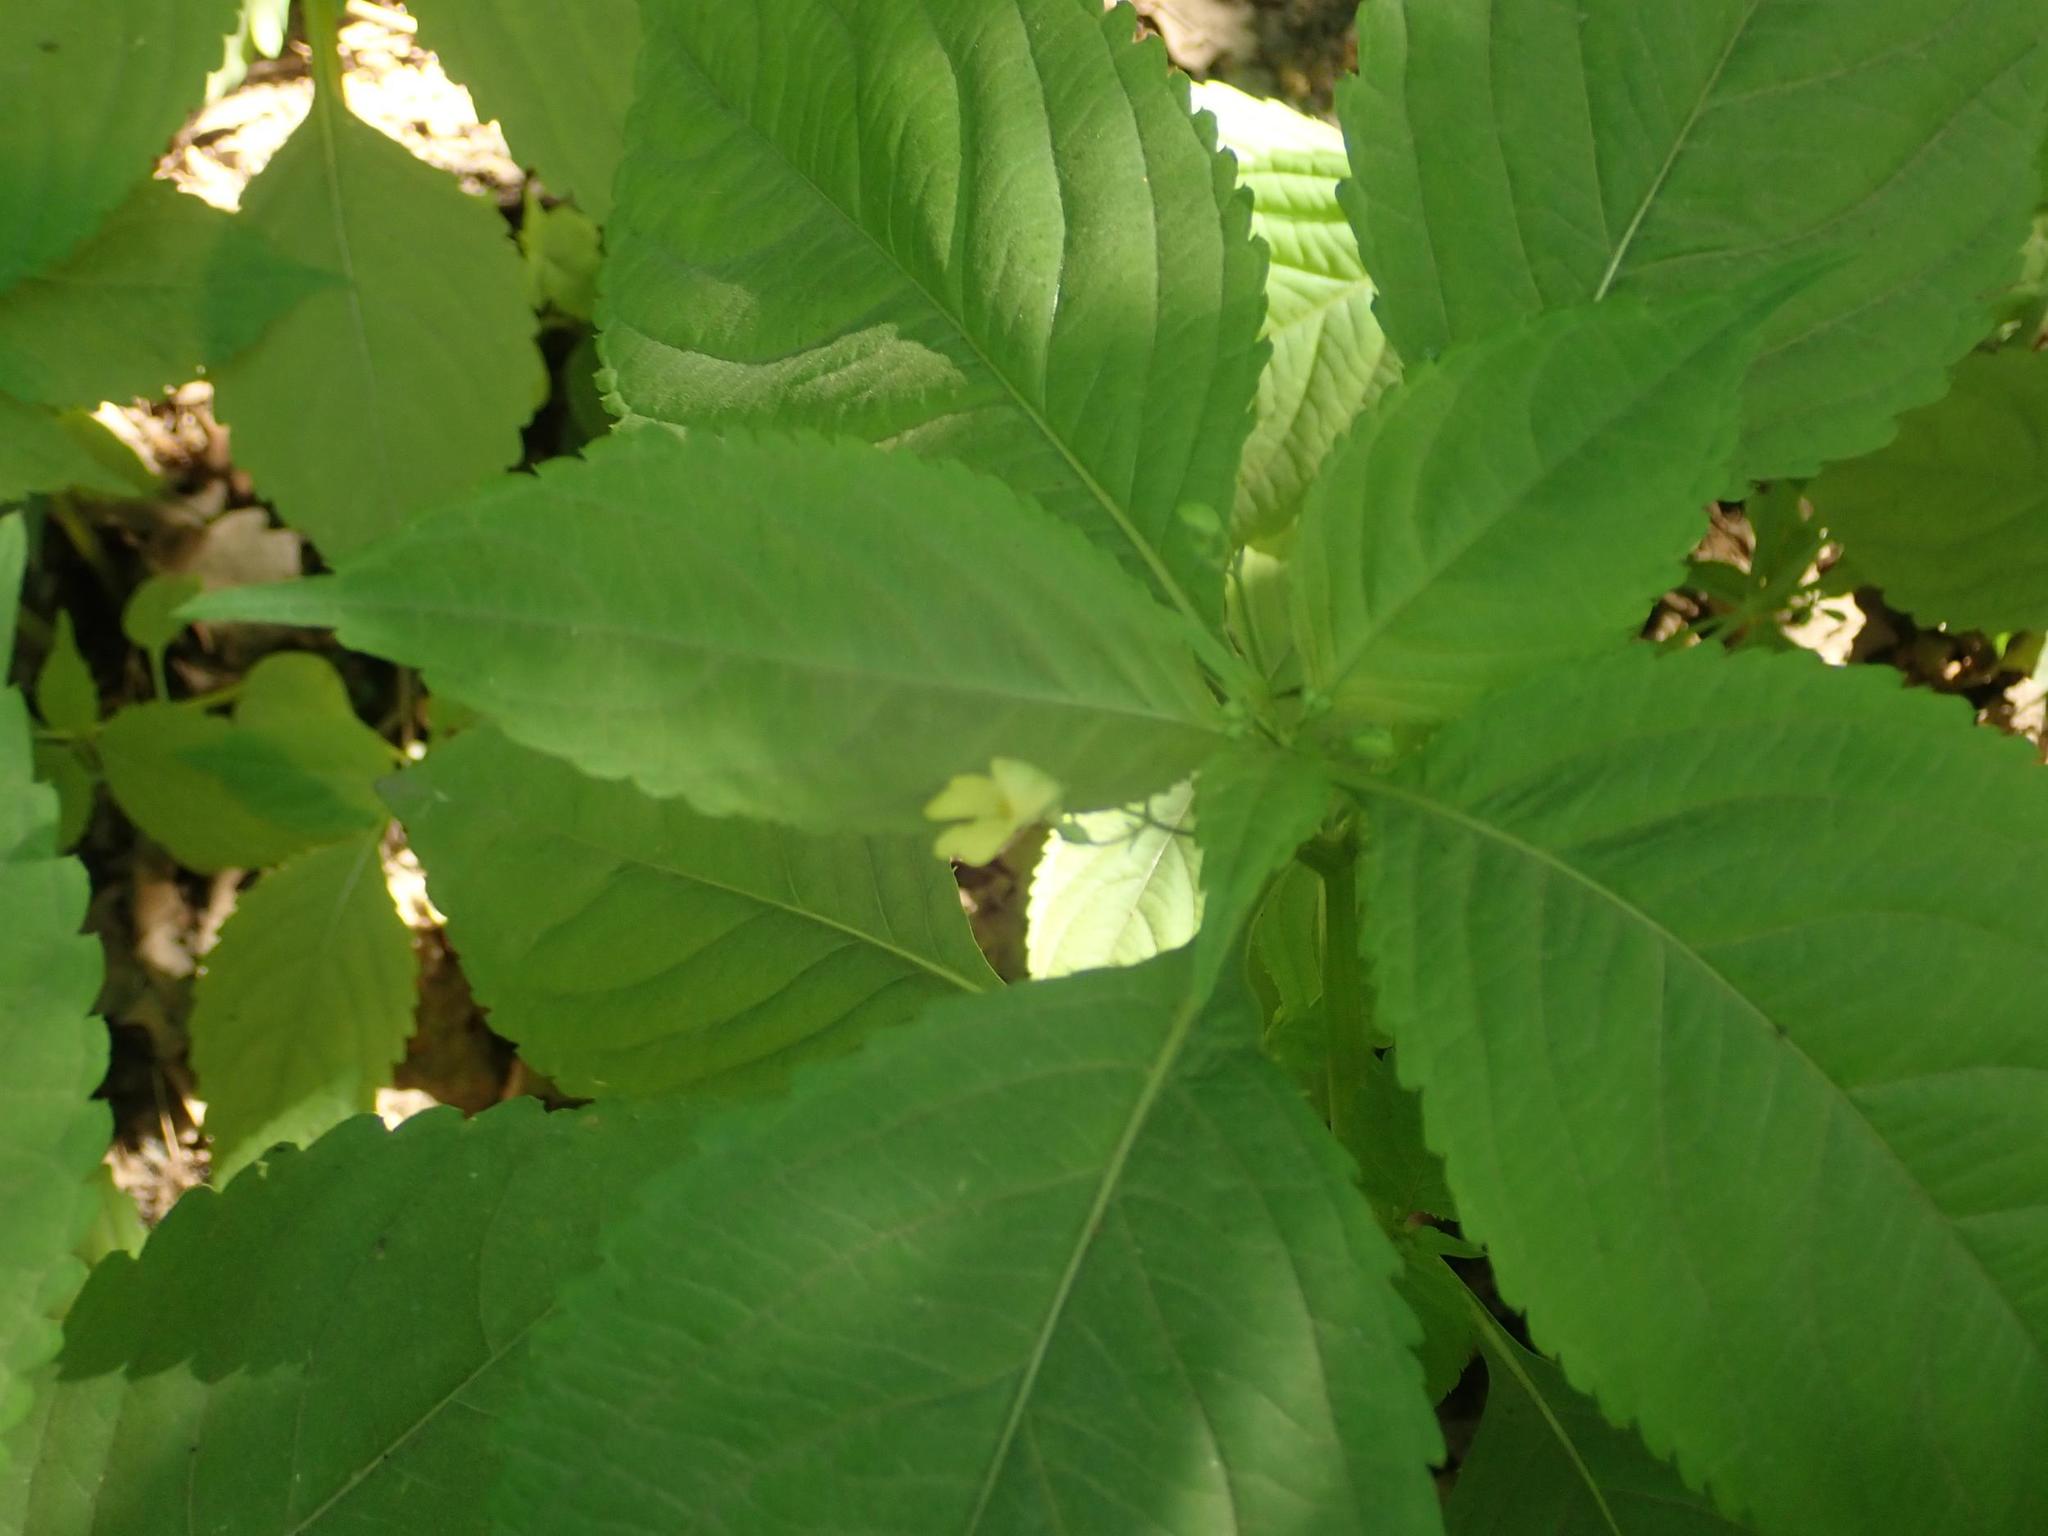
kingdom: Plantae
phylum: Tracheophyta
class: Magnoliopsida
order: Ericales
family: Balsaminaceae
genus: Impatiens
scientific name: Impatiens parviflora
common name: Small balsam
